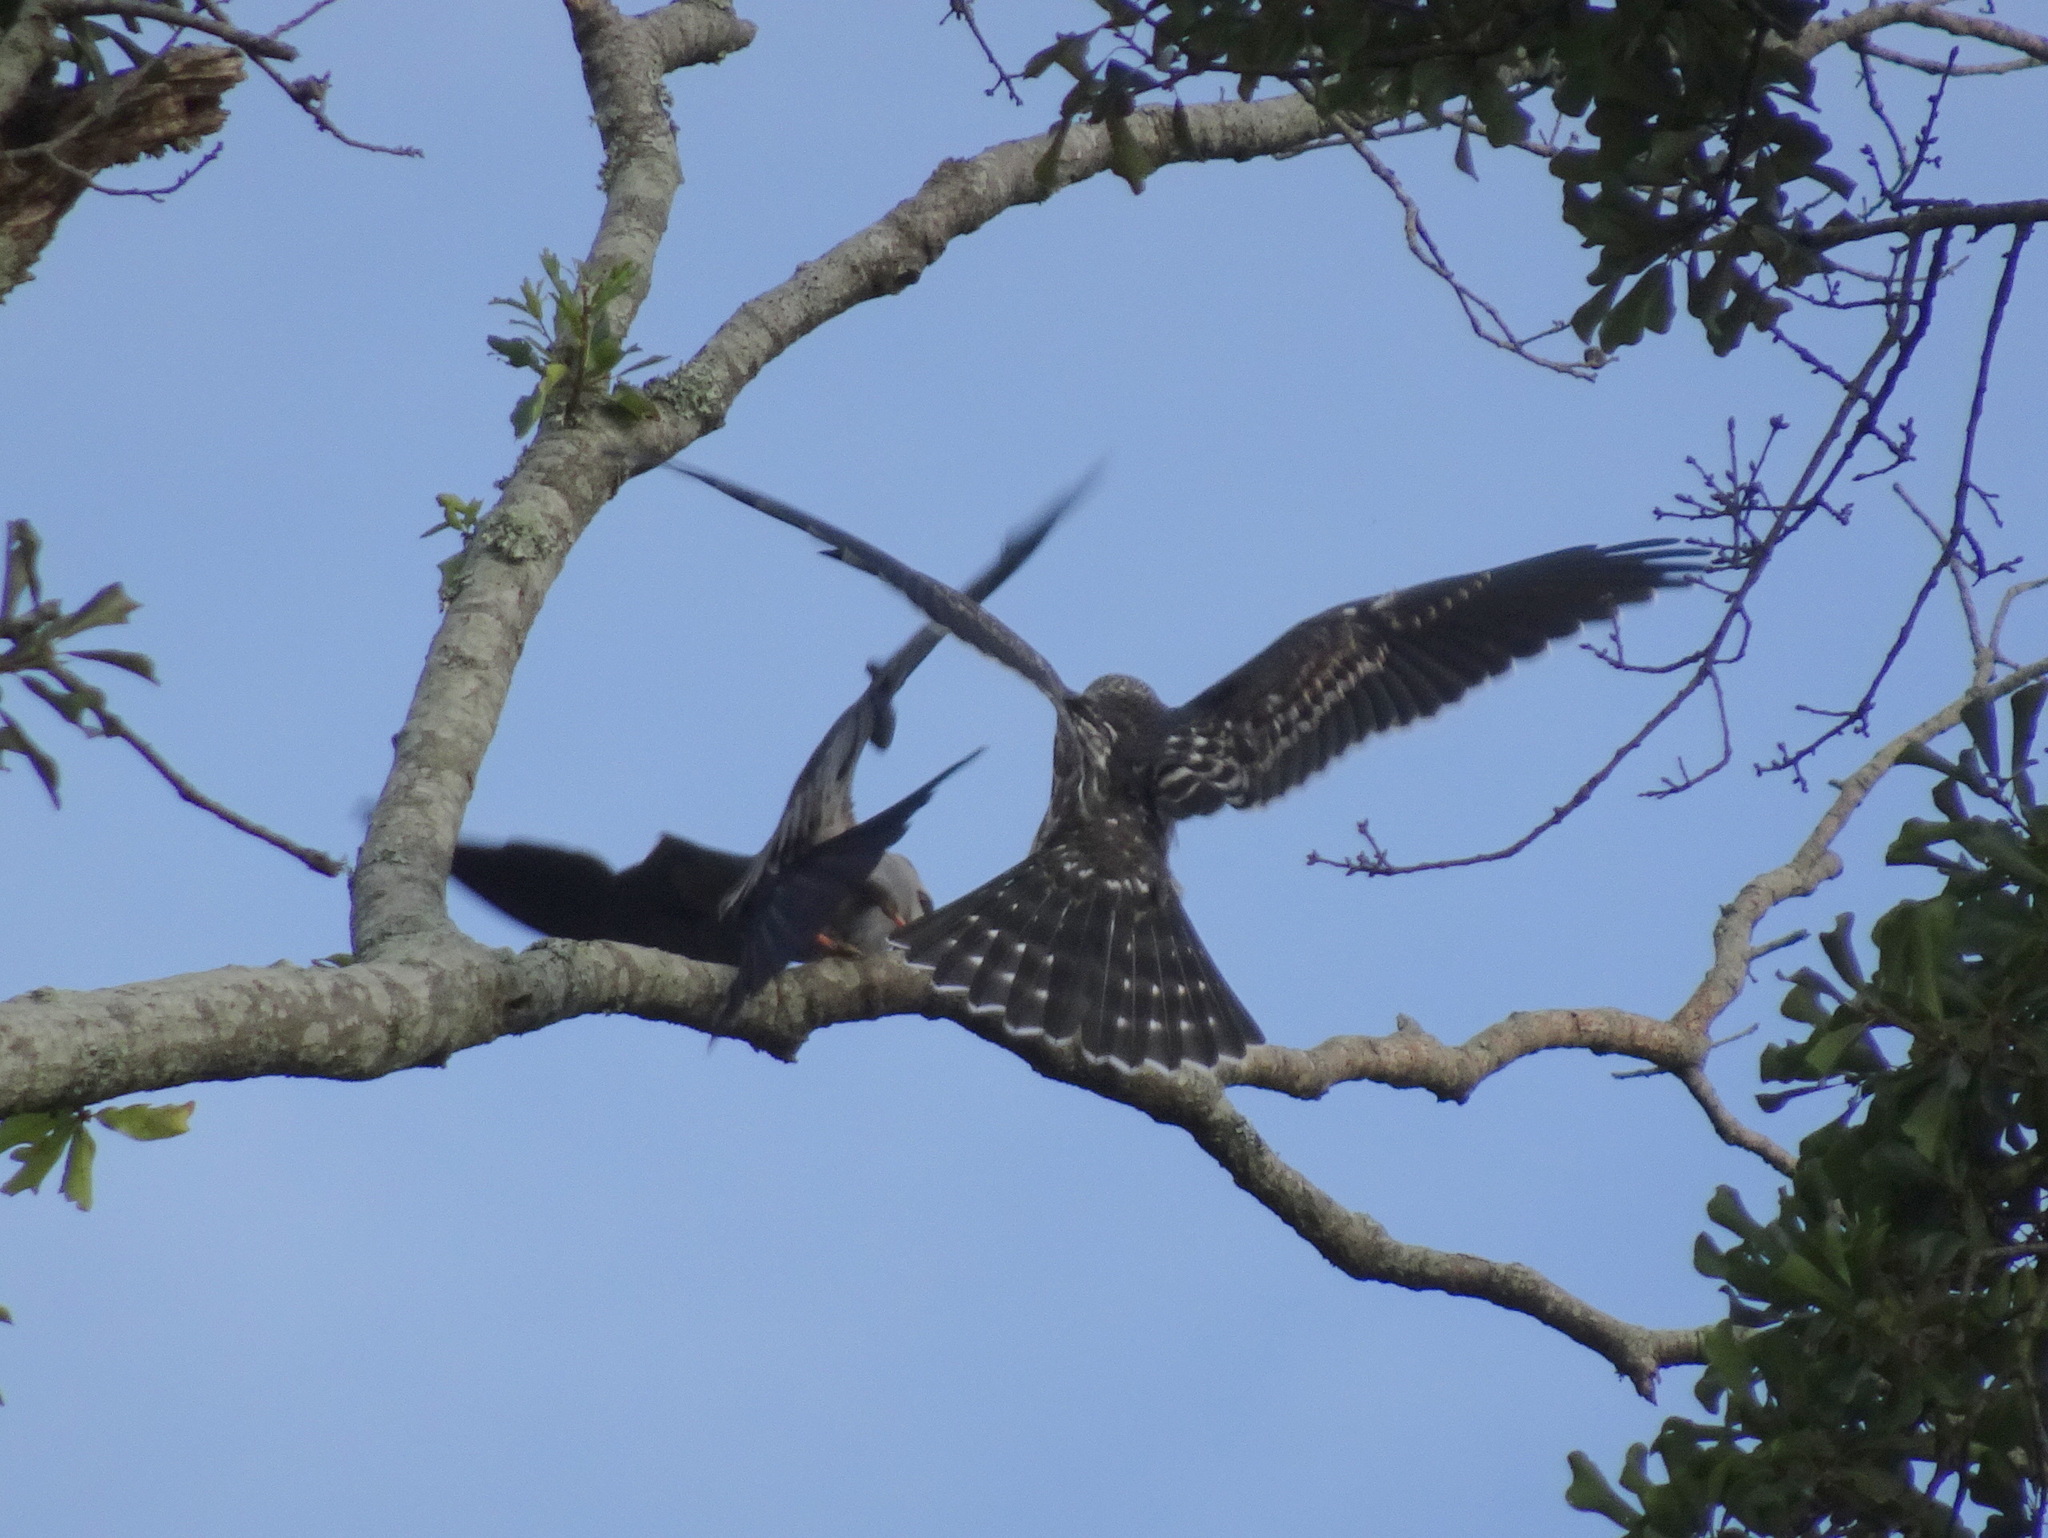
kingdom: Animalia
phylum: Chordata
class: Aves
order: Accipitriformes
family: Accipitridae
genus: Ictinia
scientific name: Ictinia mississippiensis
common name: Mississippi kite
